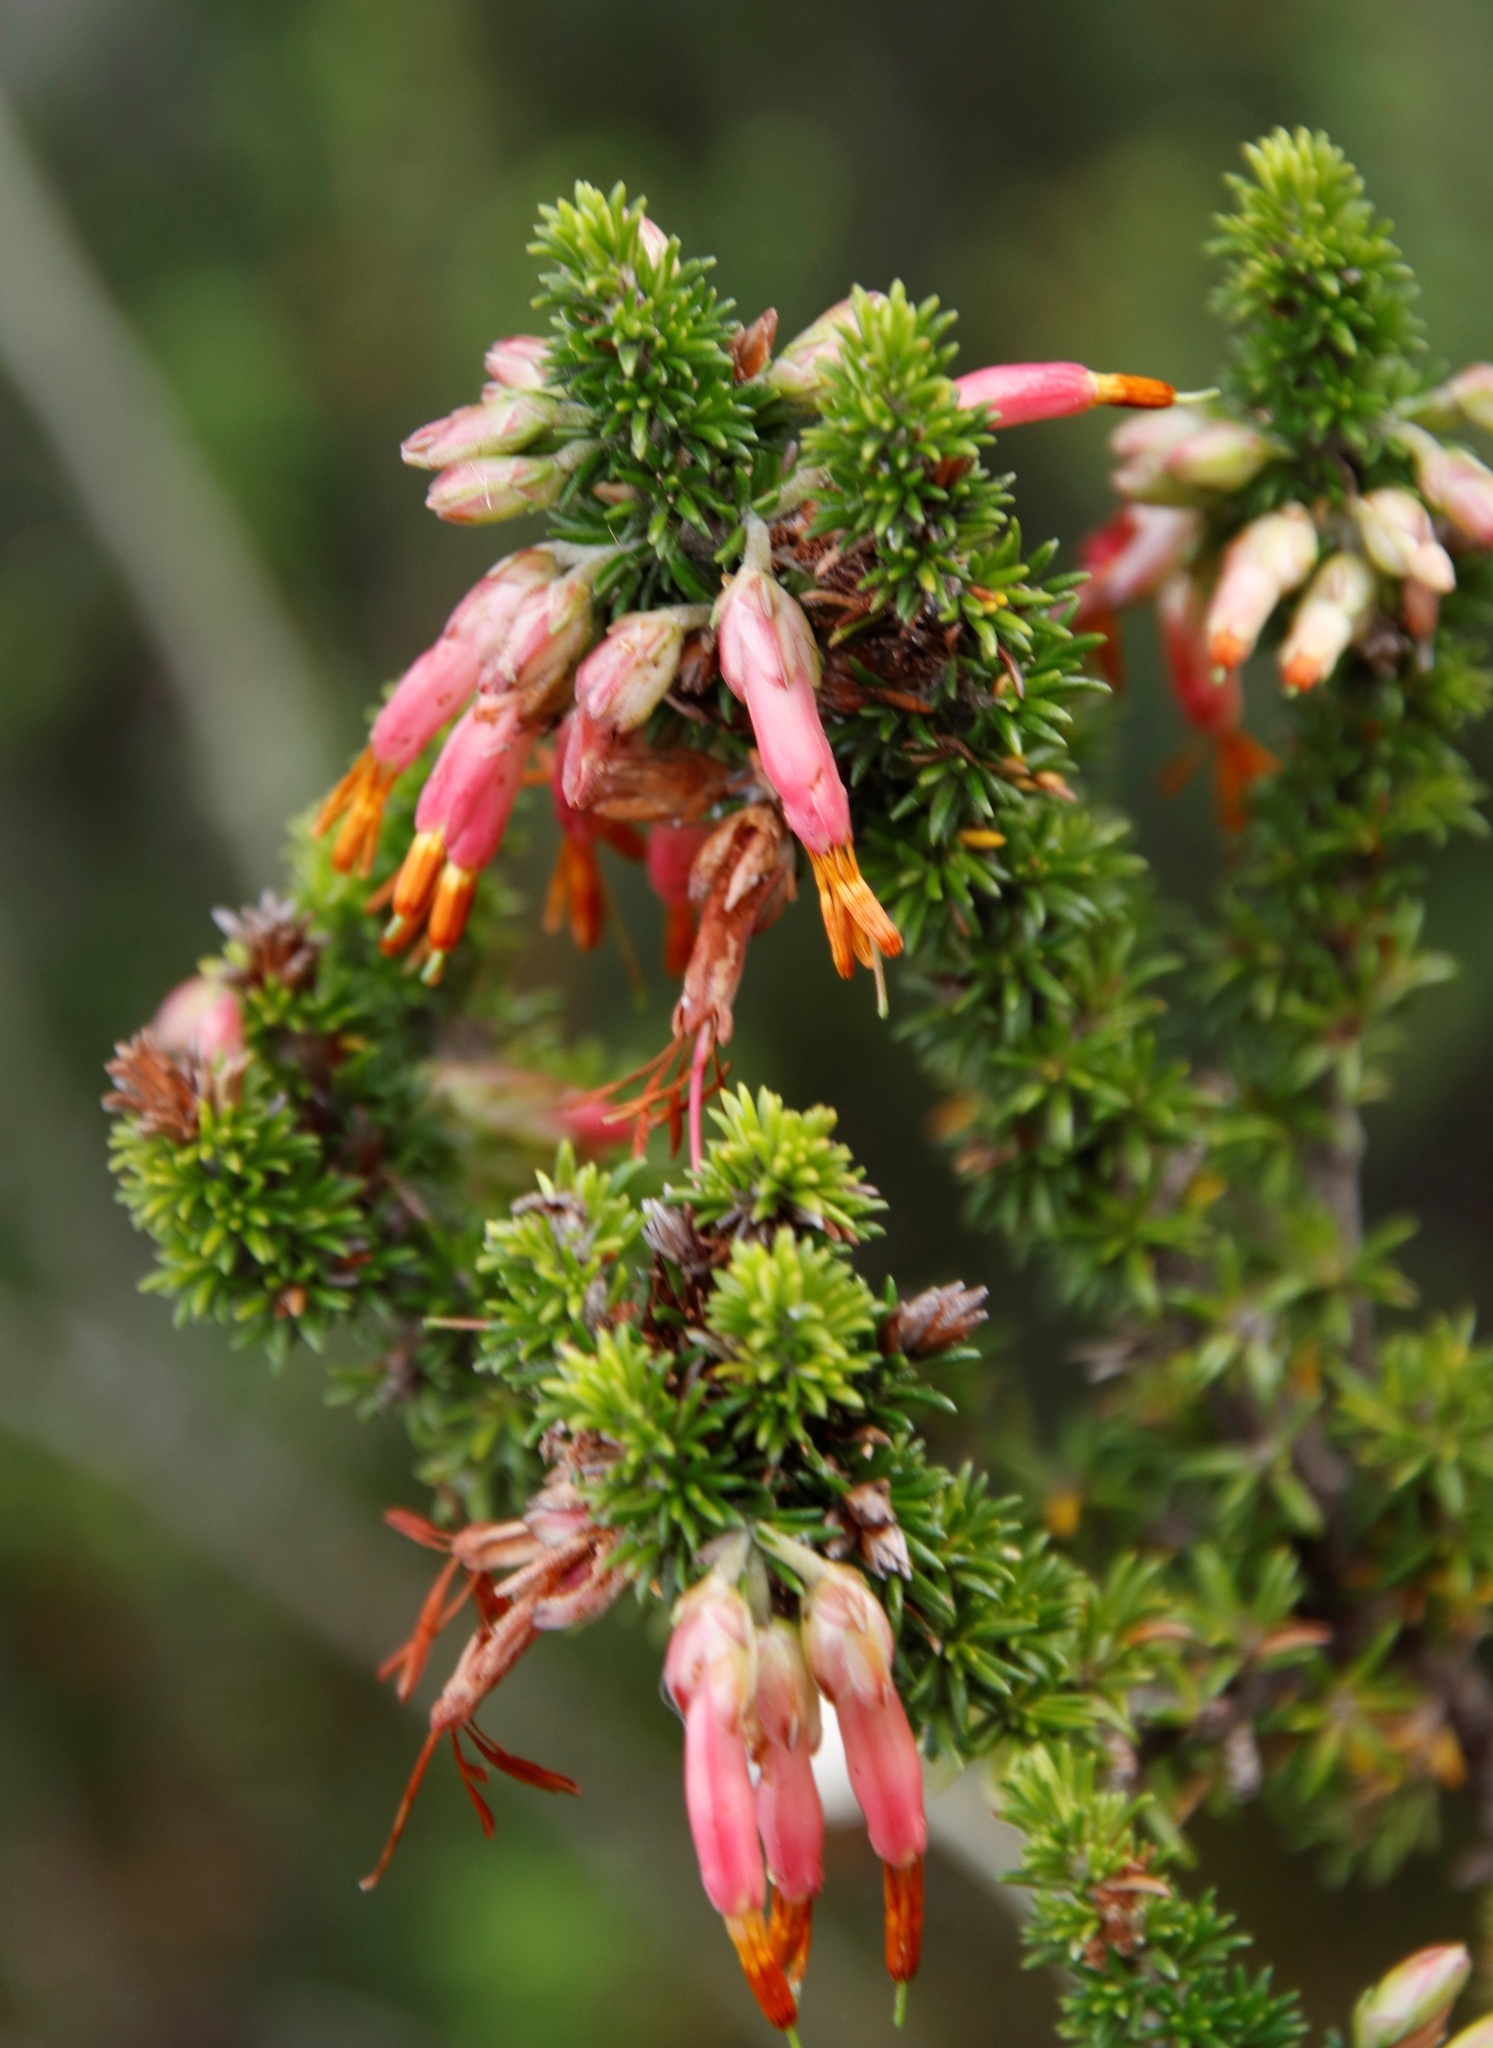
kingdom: Plantae
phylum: Tracheophyta
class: Magnoliopsida
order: Ericales
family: Ericaceae
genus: Erica
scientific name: Erica coccinea
